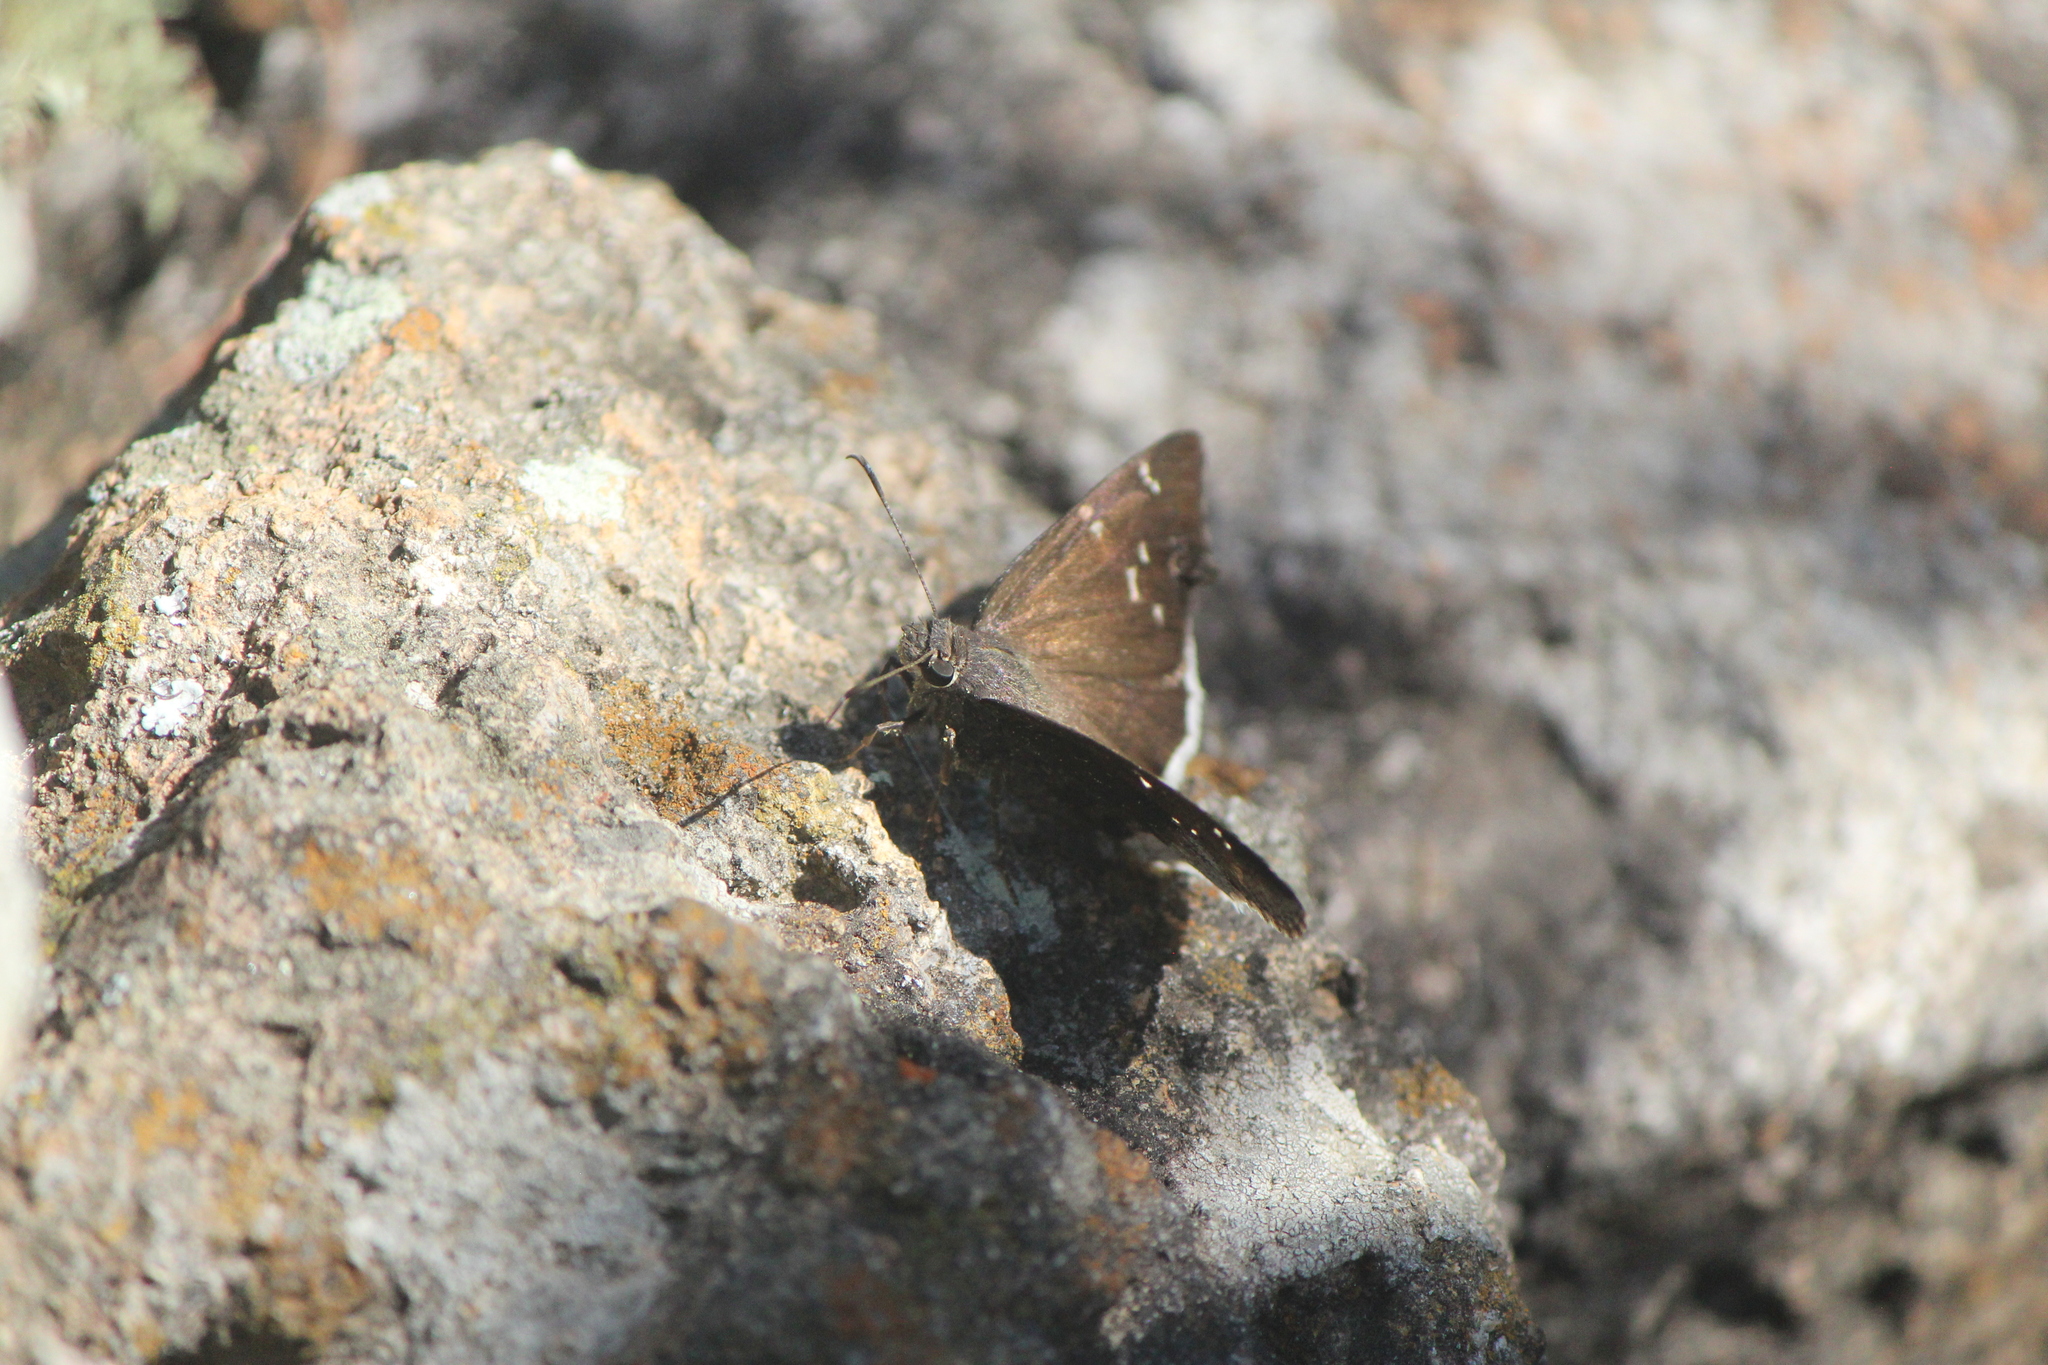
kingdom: Animalia
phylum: Arthropoda
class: Insecta
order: Lepidoptera
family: Hesperiidae
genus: Thorybes
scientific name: Thorybes casica
